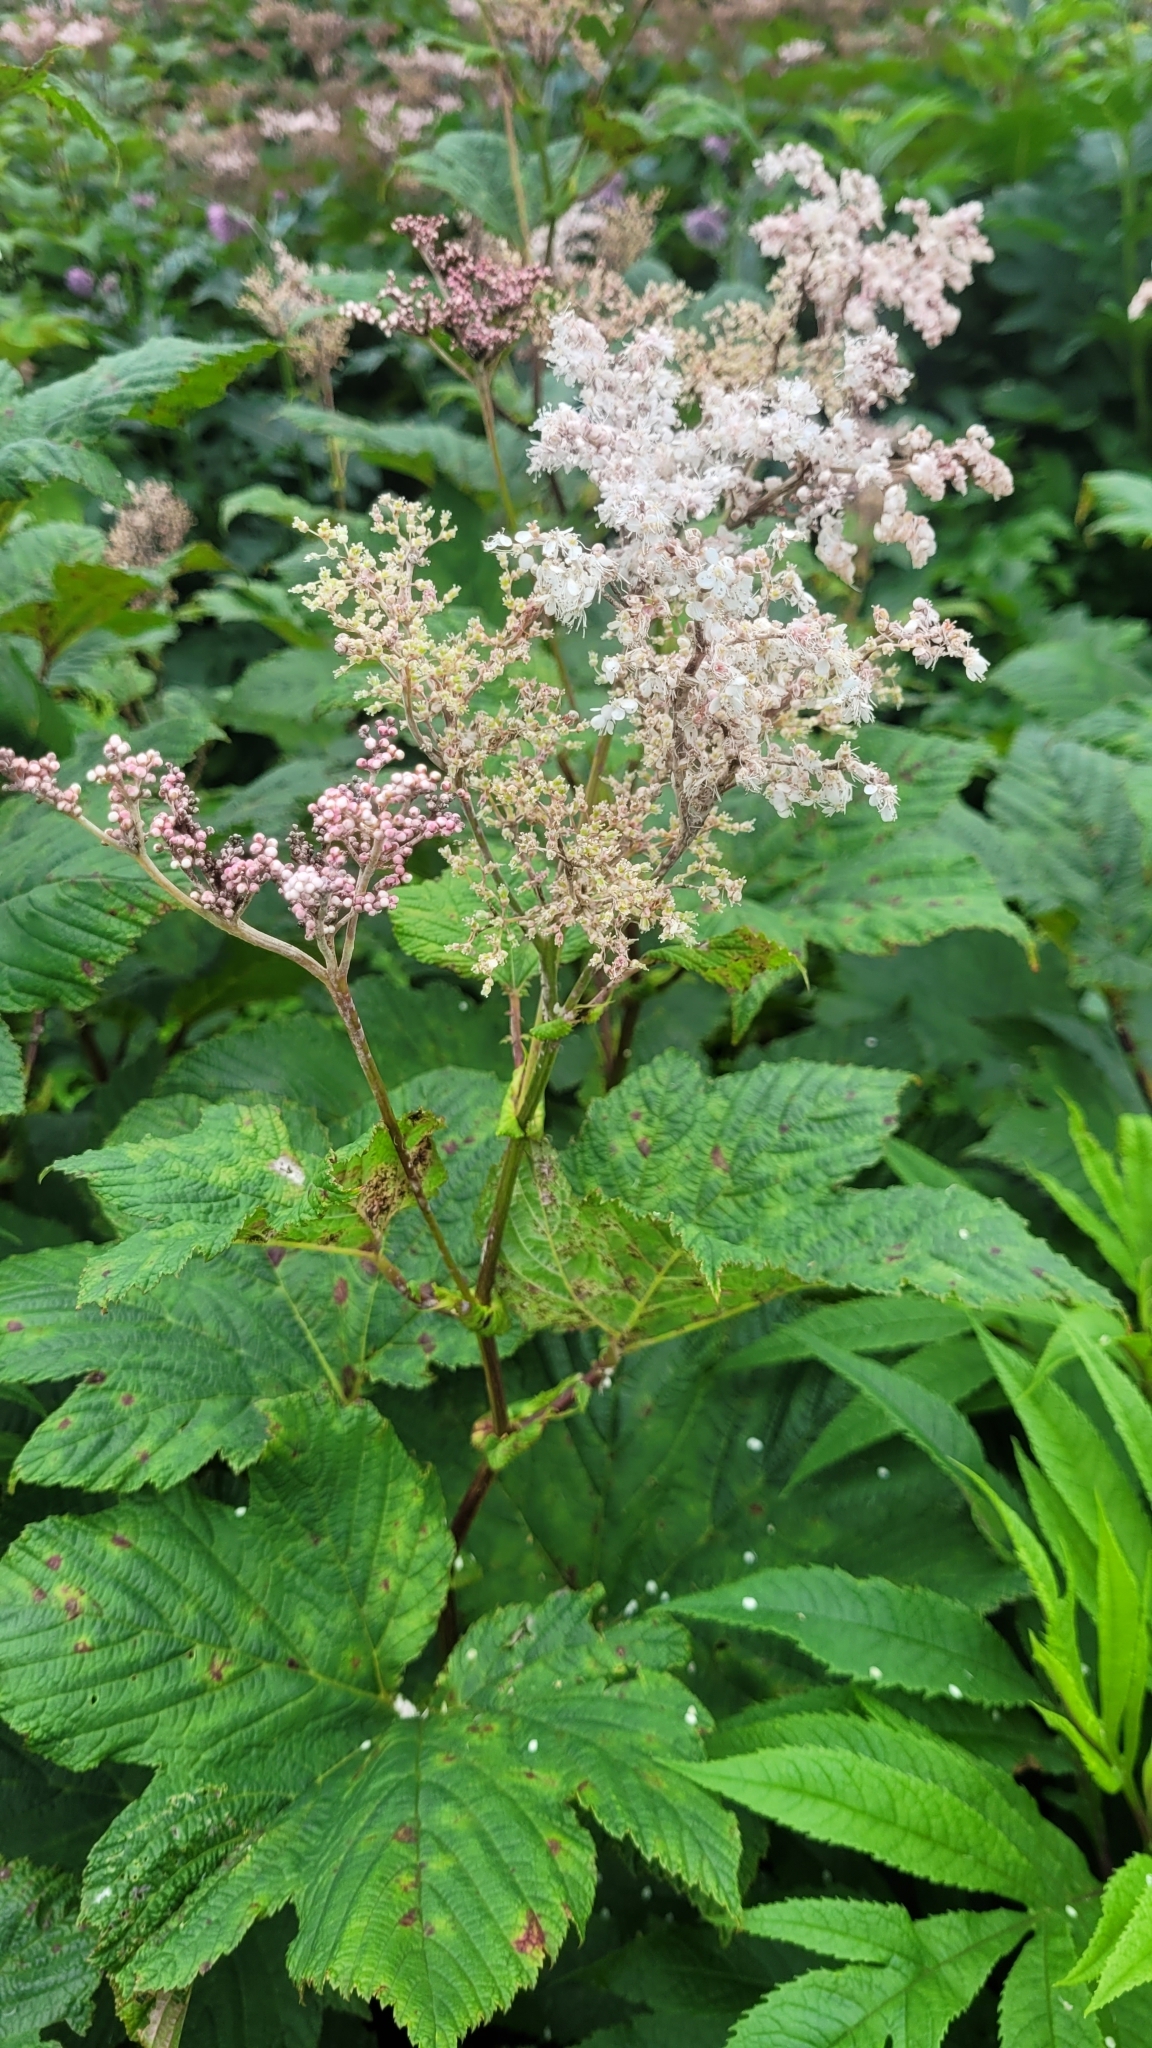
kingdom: Plantae
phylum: Tracheophyta
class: Magnoliopsida
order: Rosales
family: Rosaceae
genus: Filipendula
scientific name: Filipendula camtschatica
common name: Giant meadowsweet
